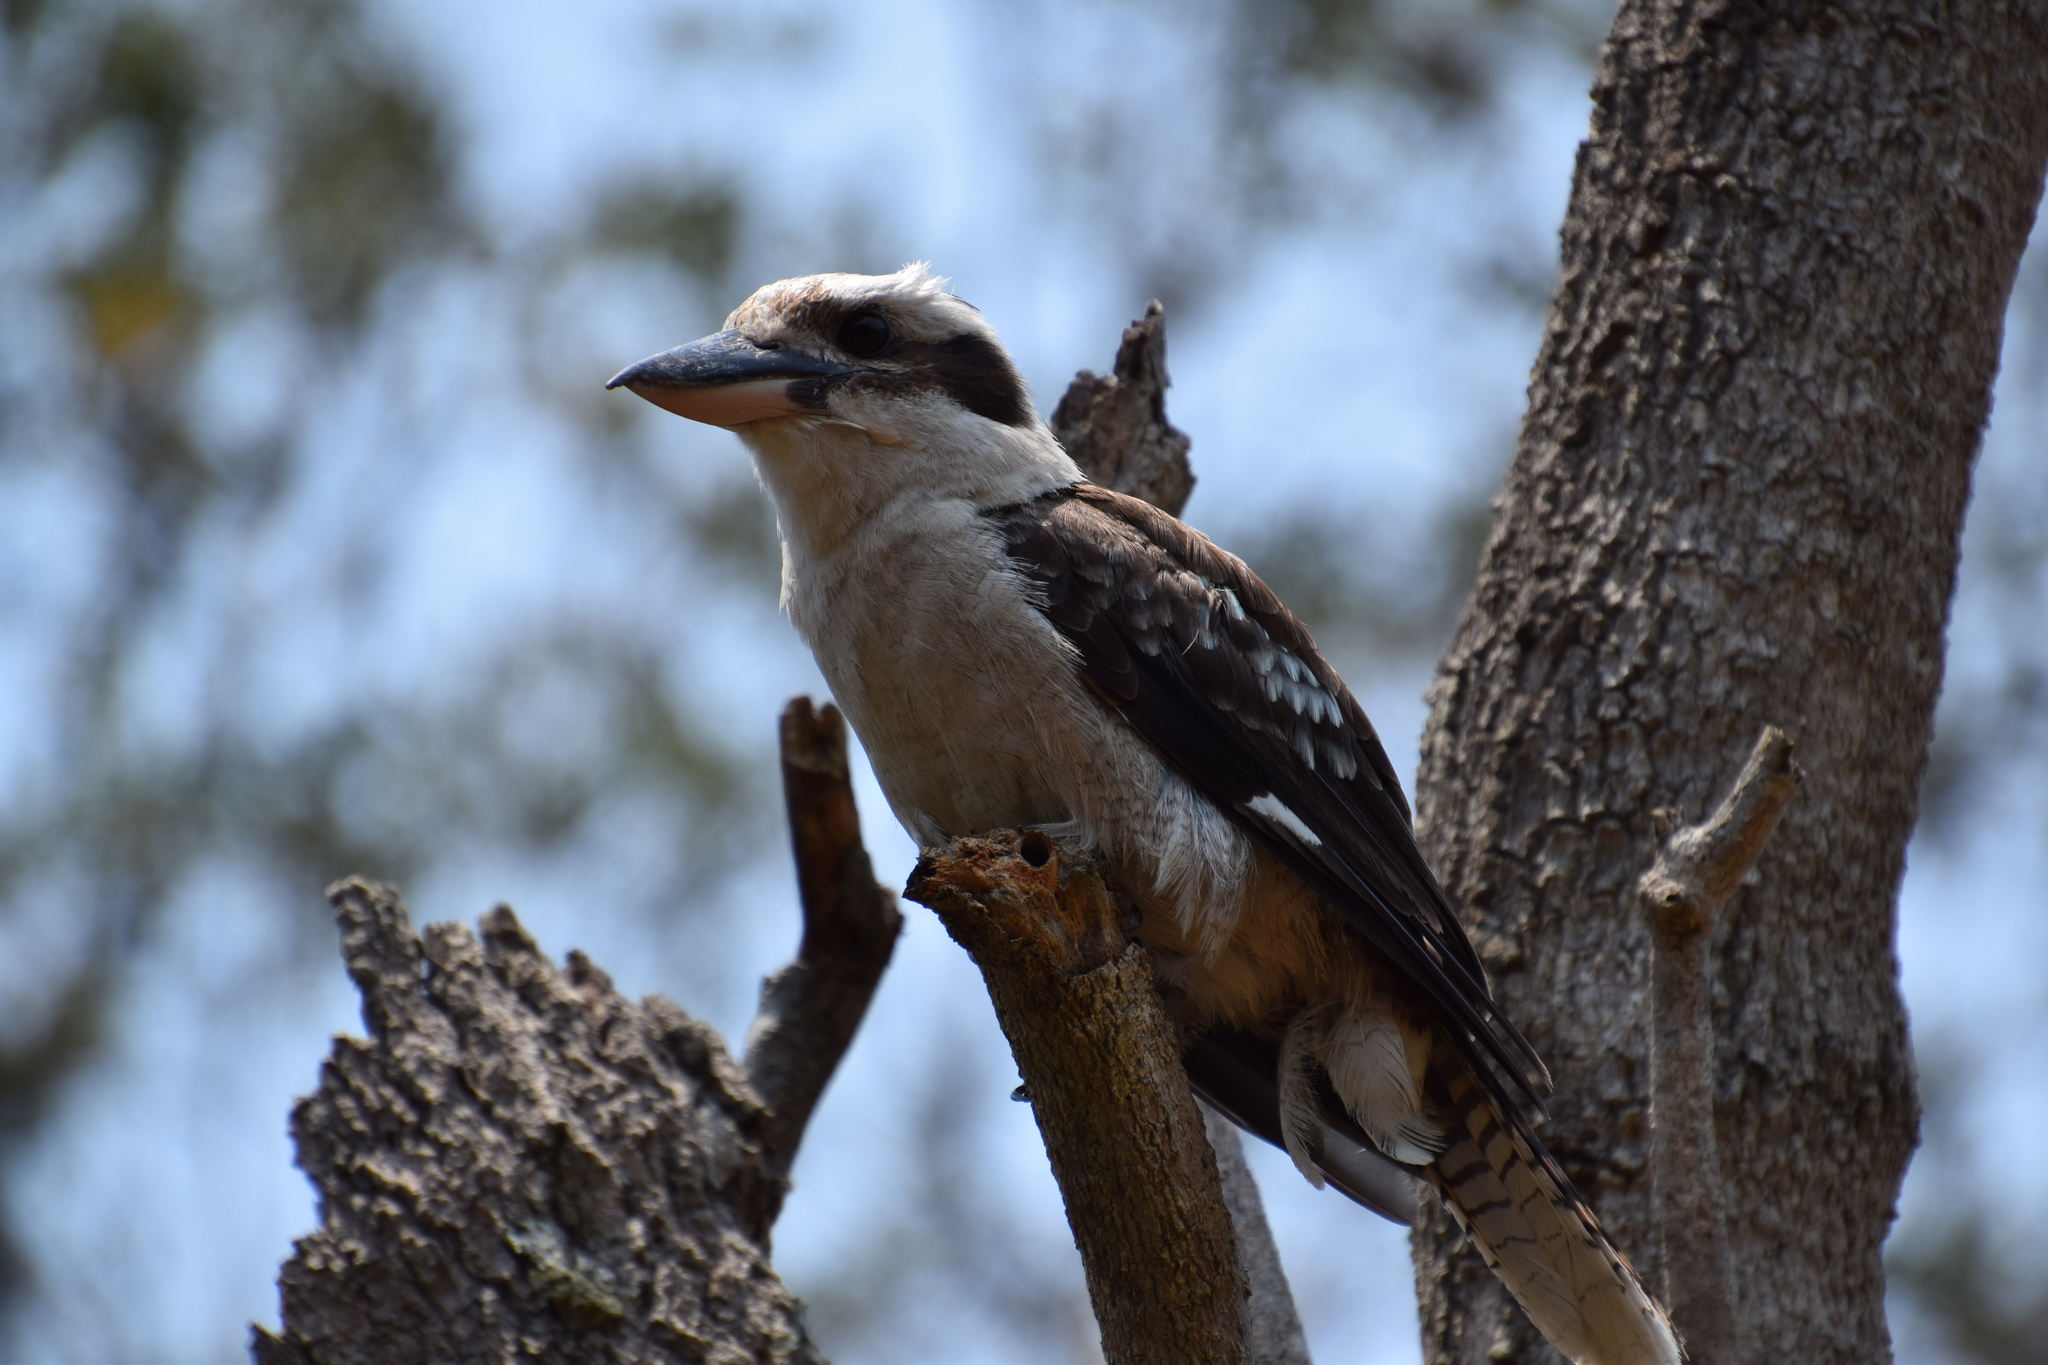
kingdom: Animalia
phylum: Chordata
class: Aves
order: Coraciiformes
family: Alcedinidae
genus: Dacelo
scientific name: Dacelo novaeguineae
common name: Laughing kookaburra
